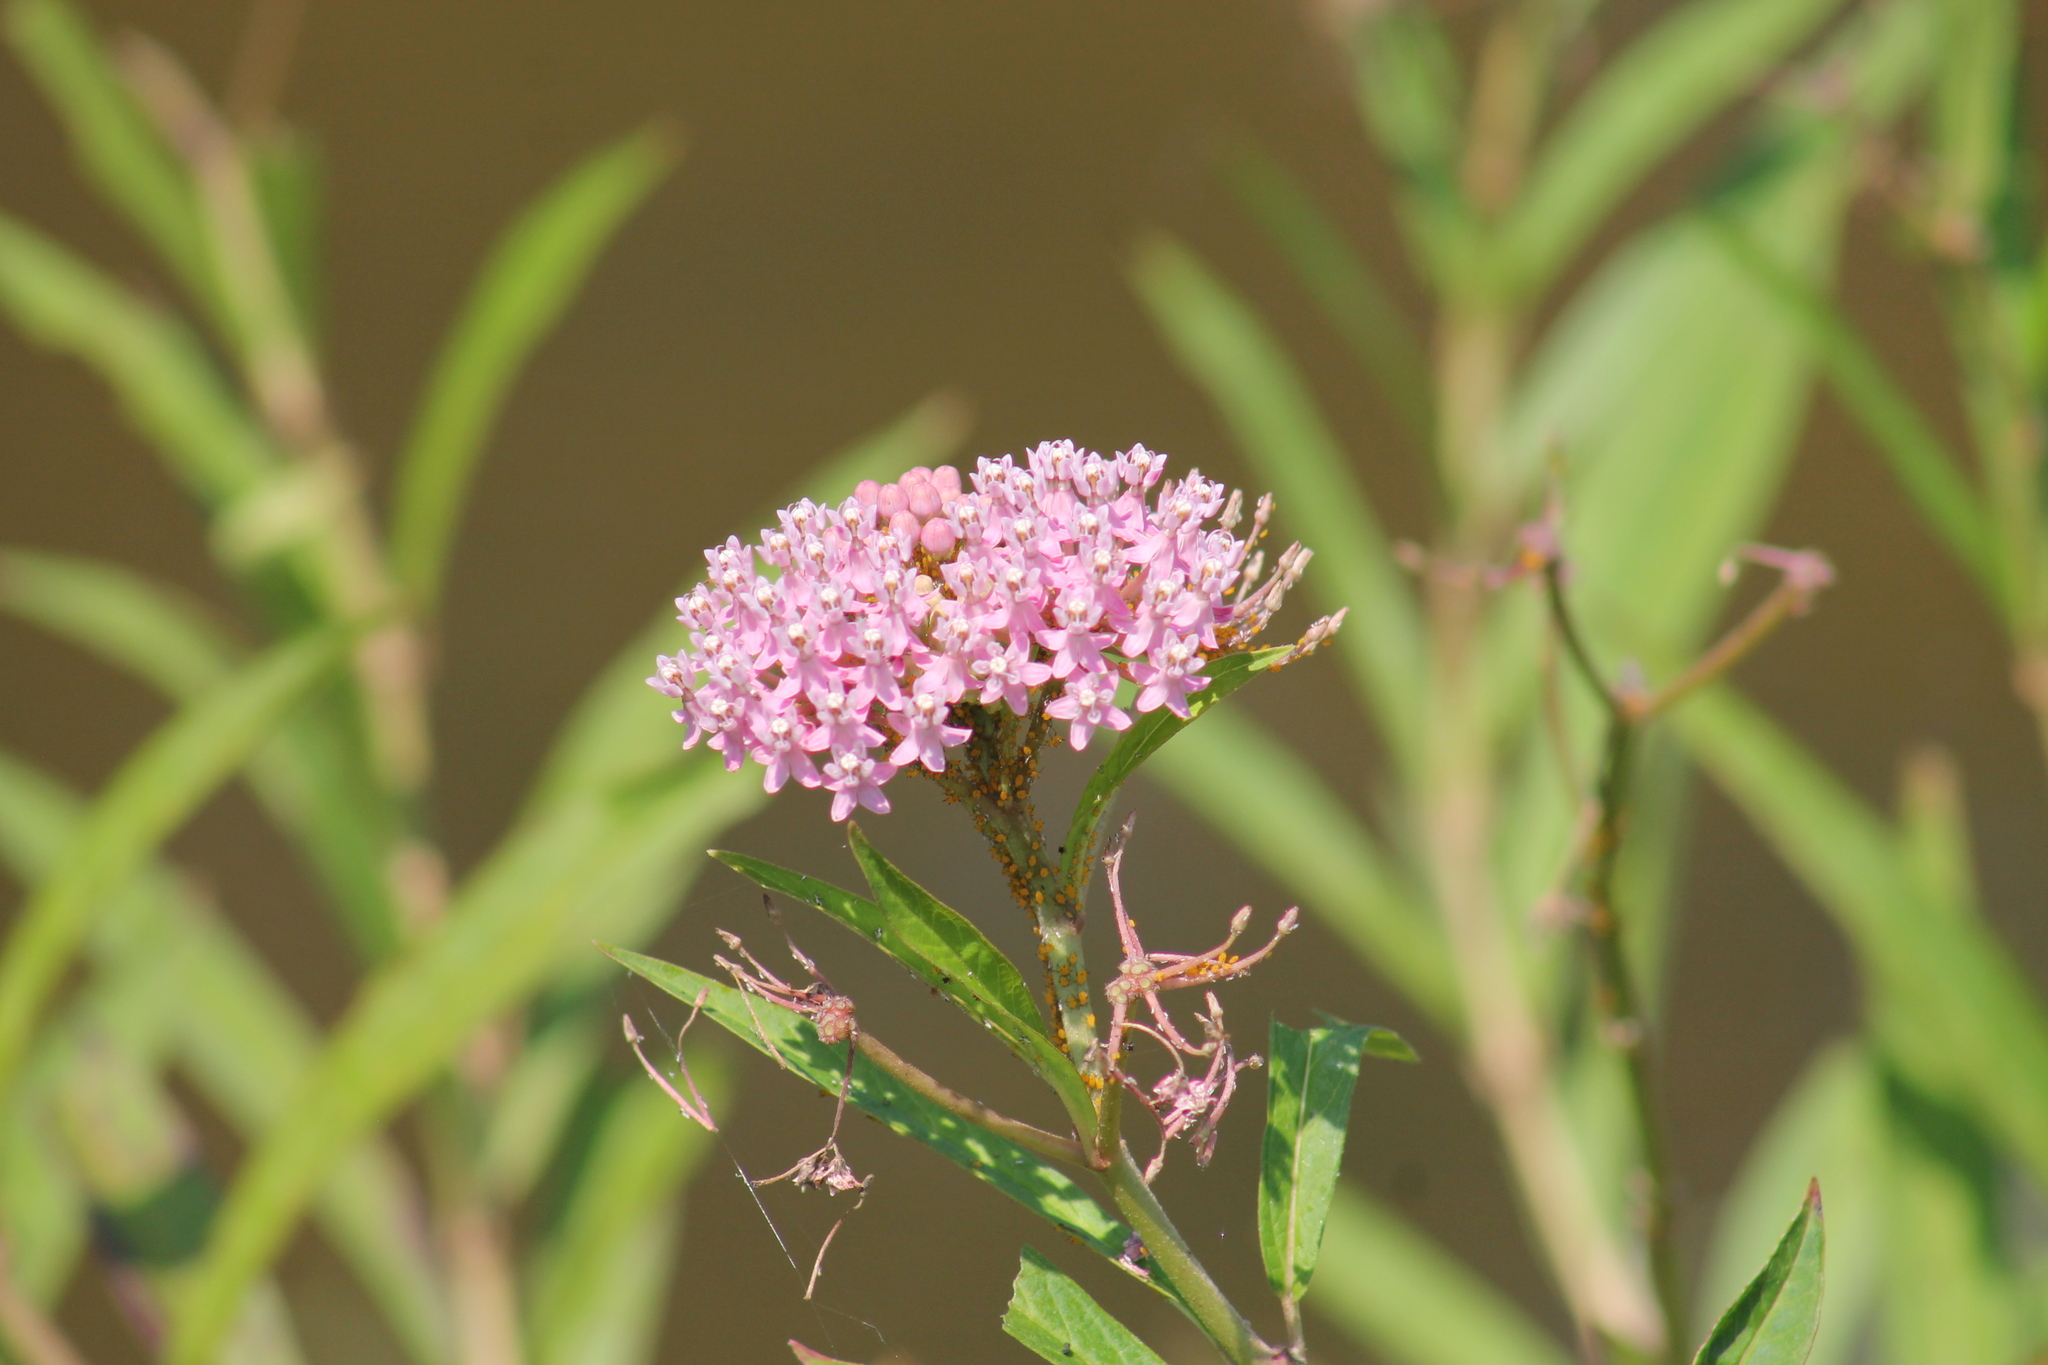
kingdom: Plantae
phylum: Tracheophyta
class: Magnoliopsida
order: Gentianales
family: Apocynaceae
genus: Asclepias
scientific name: Asclepias incarnata
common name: Swamp milkweed
